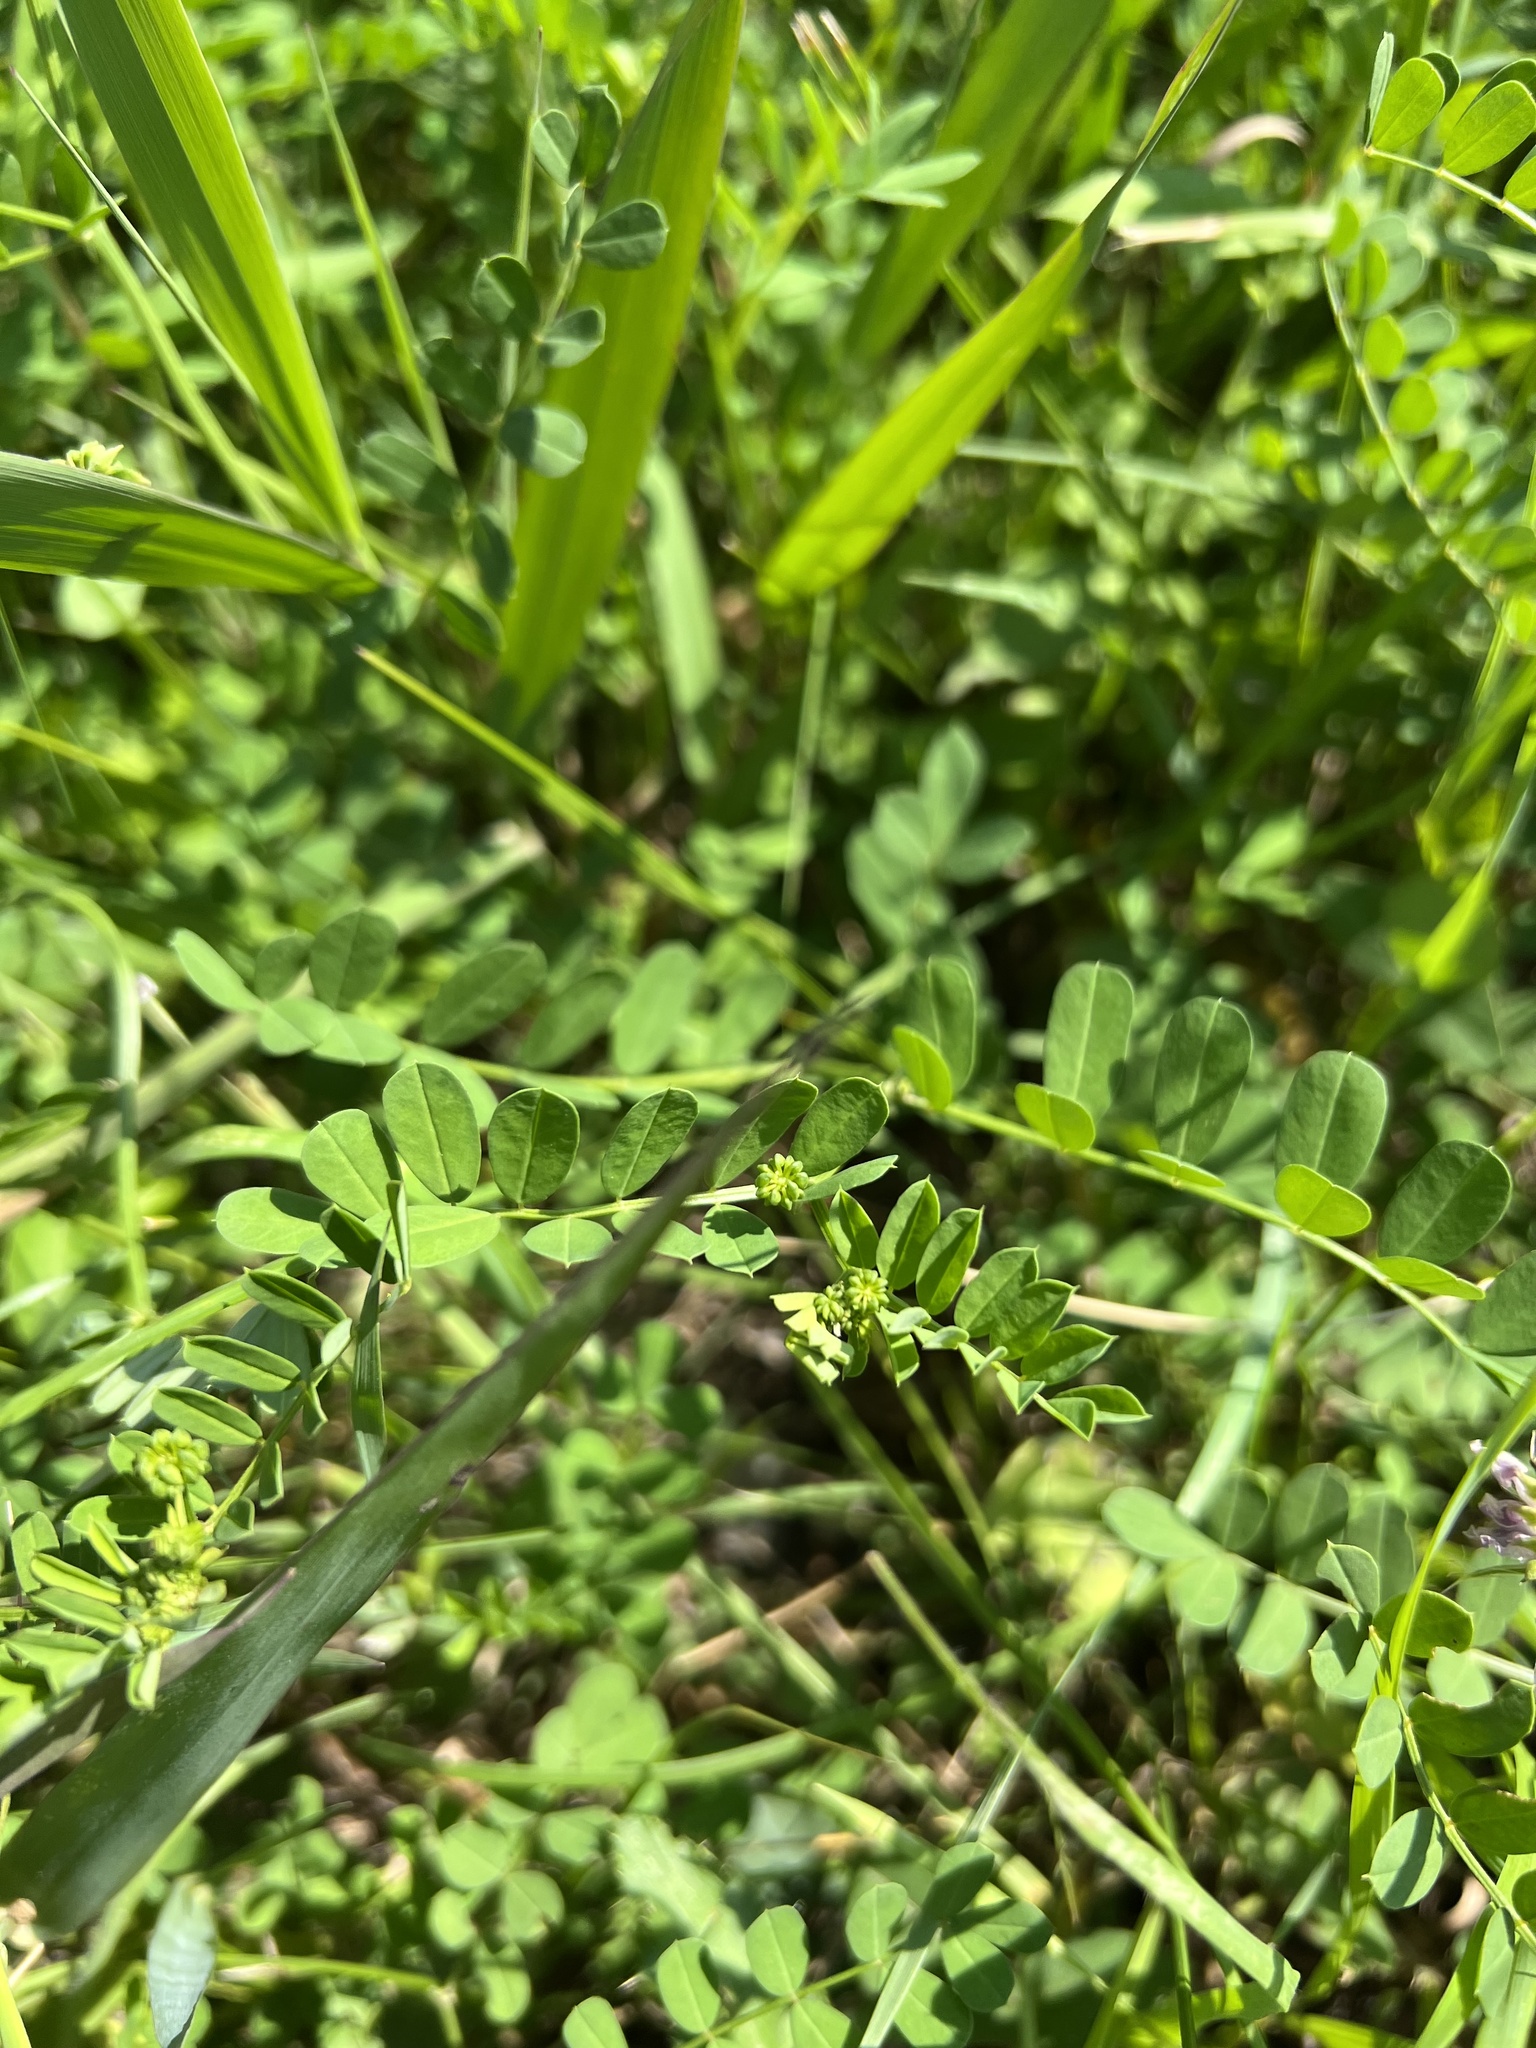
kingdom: Plantae
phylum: Tracheophyta
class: Magnoliopsida
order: Fabales
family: Fabaceae
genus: Coronilla
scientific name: Coronilla varia
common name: Crownvetch
